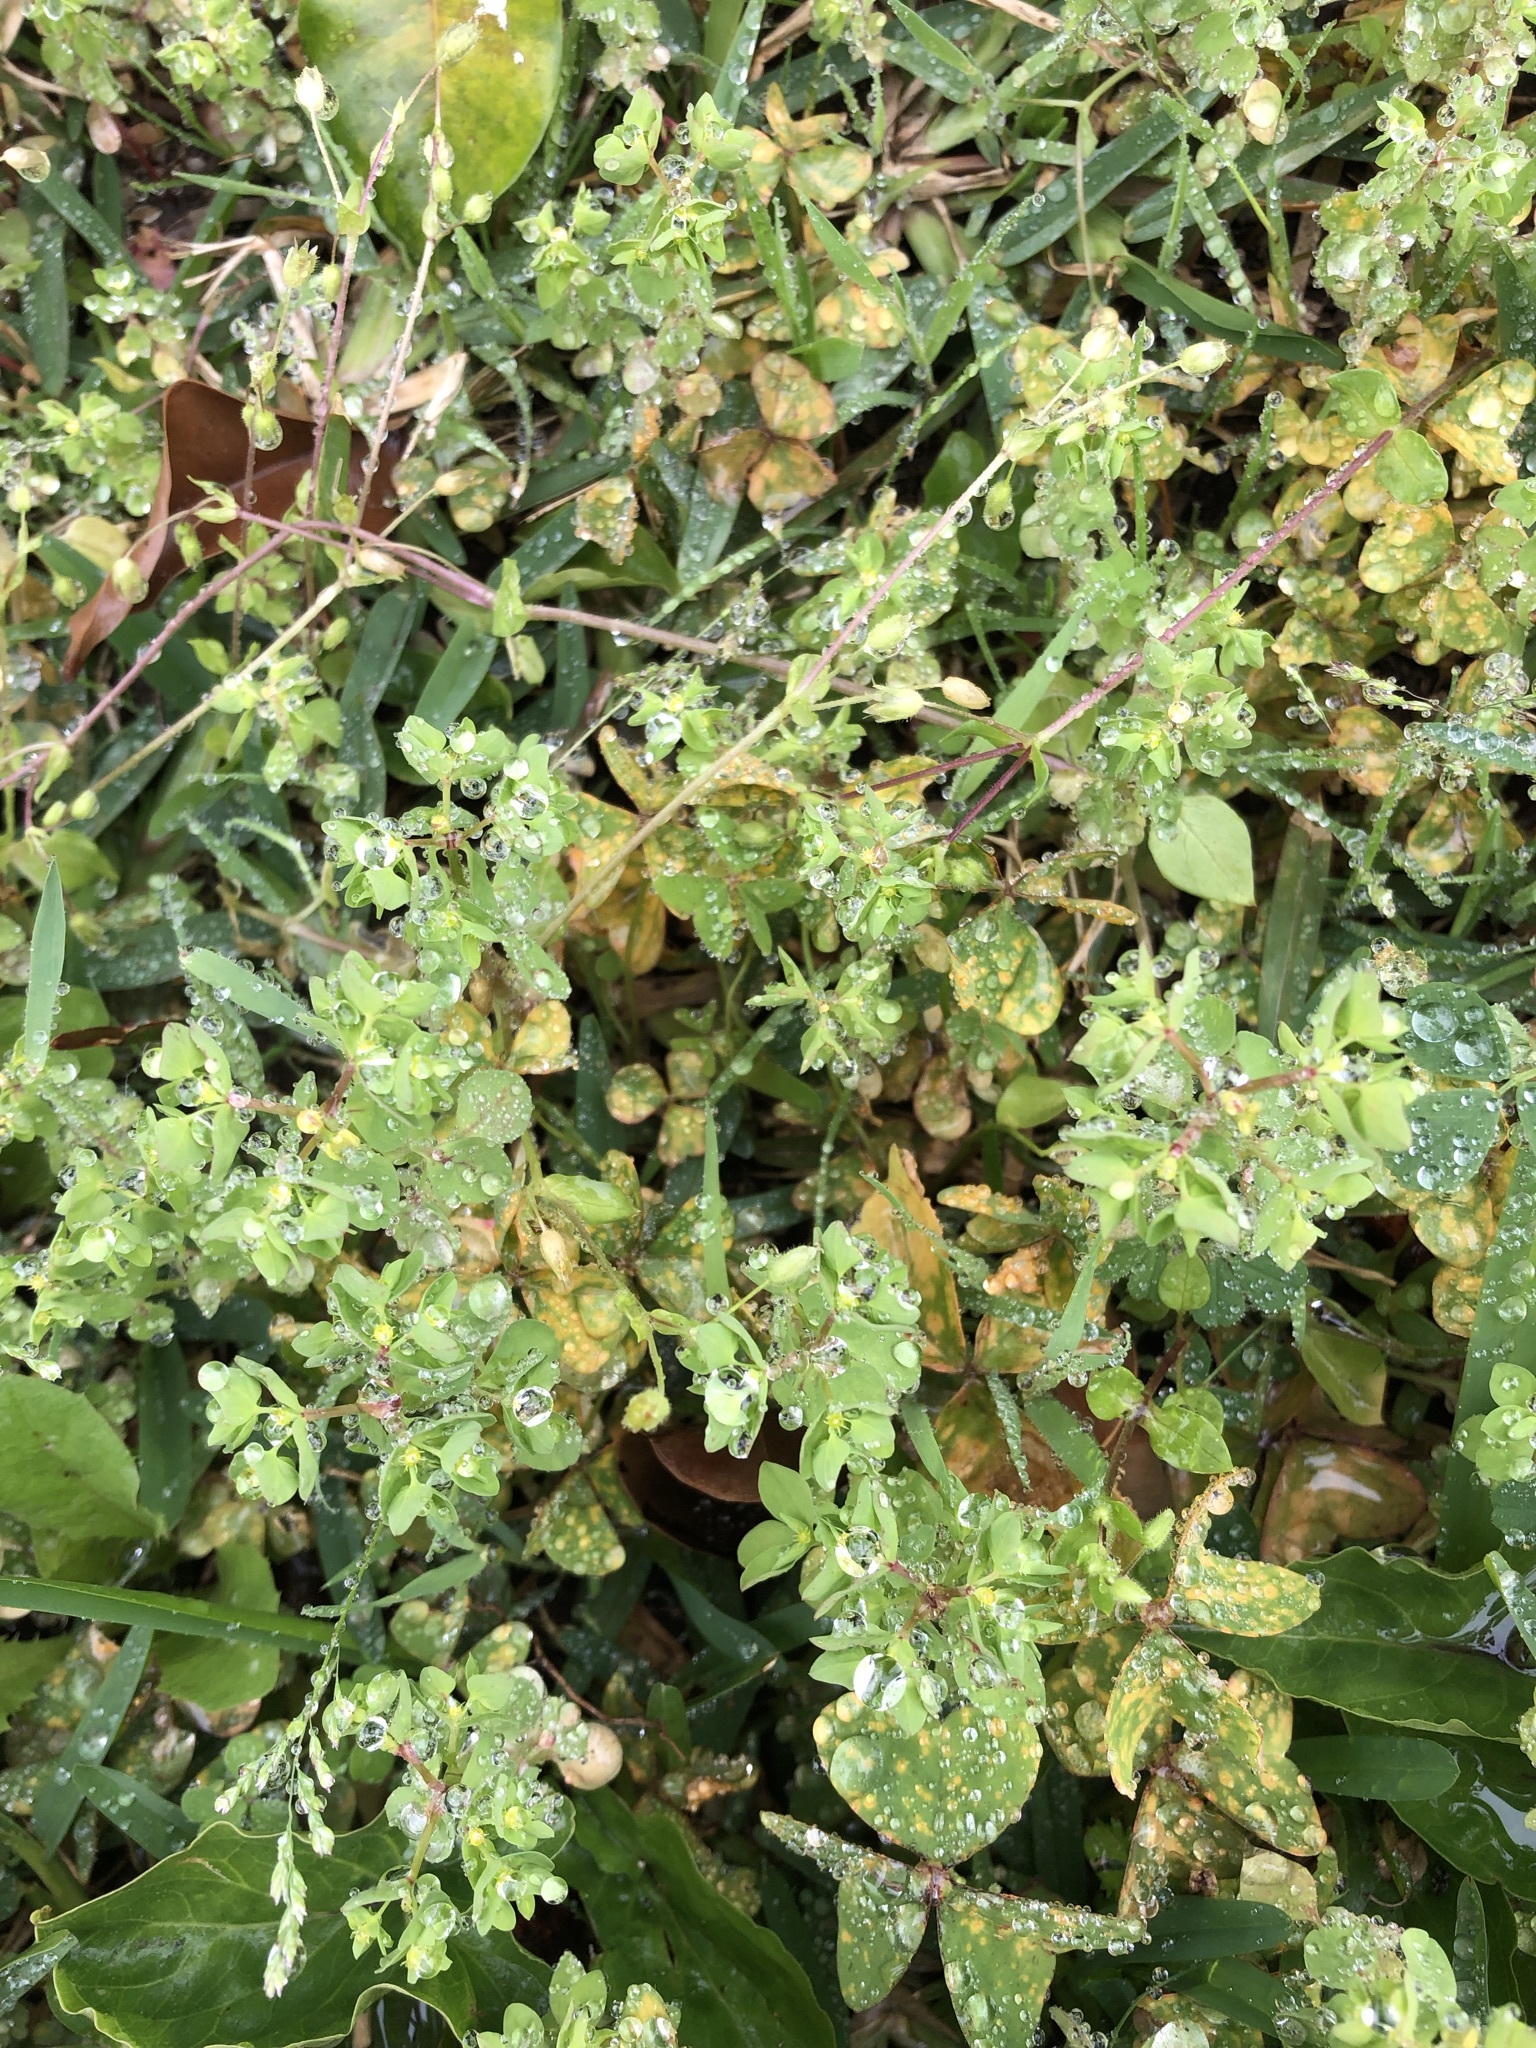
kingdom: Plantae
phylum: Tracheophyta
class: Magnoliopsida
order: Malpighiales
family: Euphorbiaceae
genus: Euphorbia
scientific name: Euphorbia peplus
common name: Petty spurge
